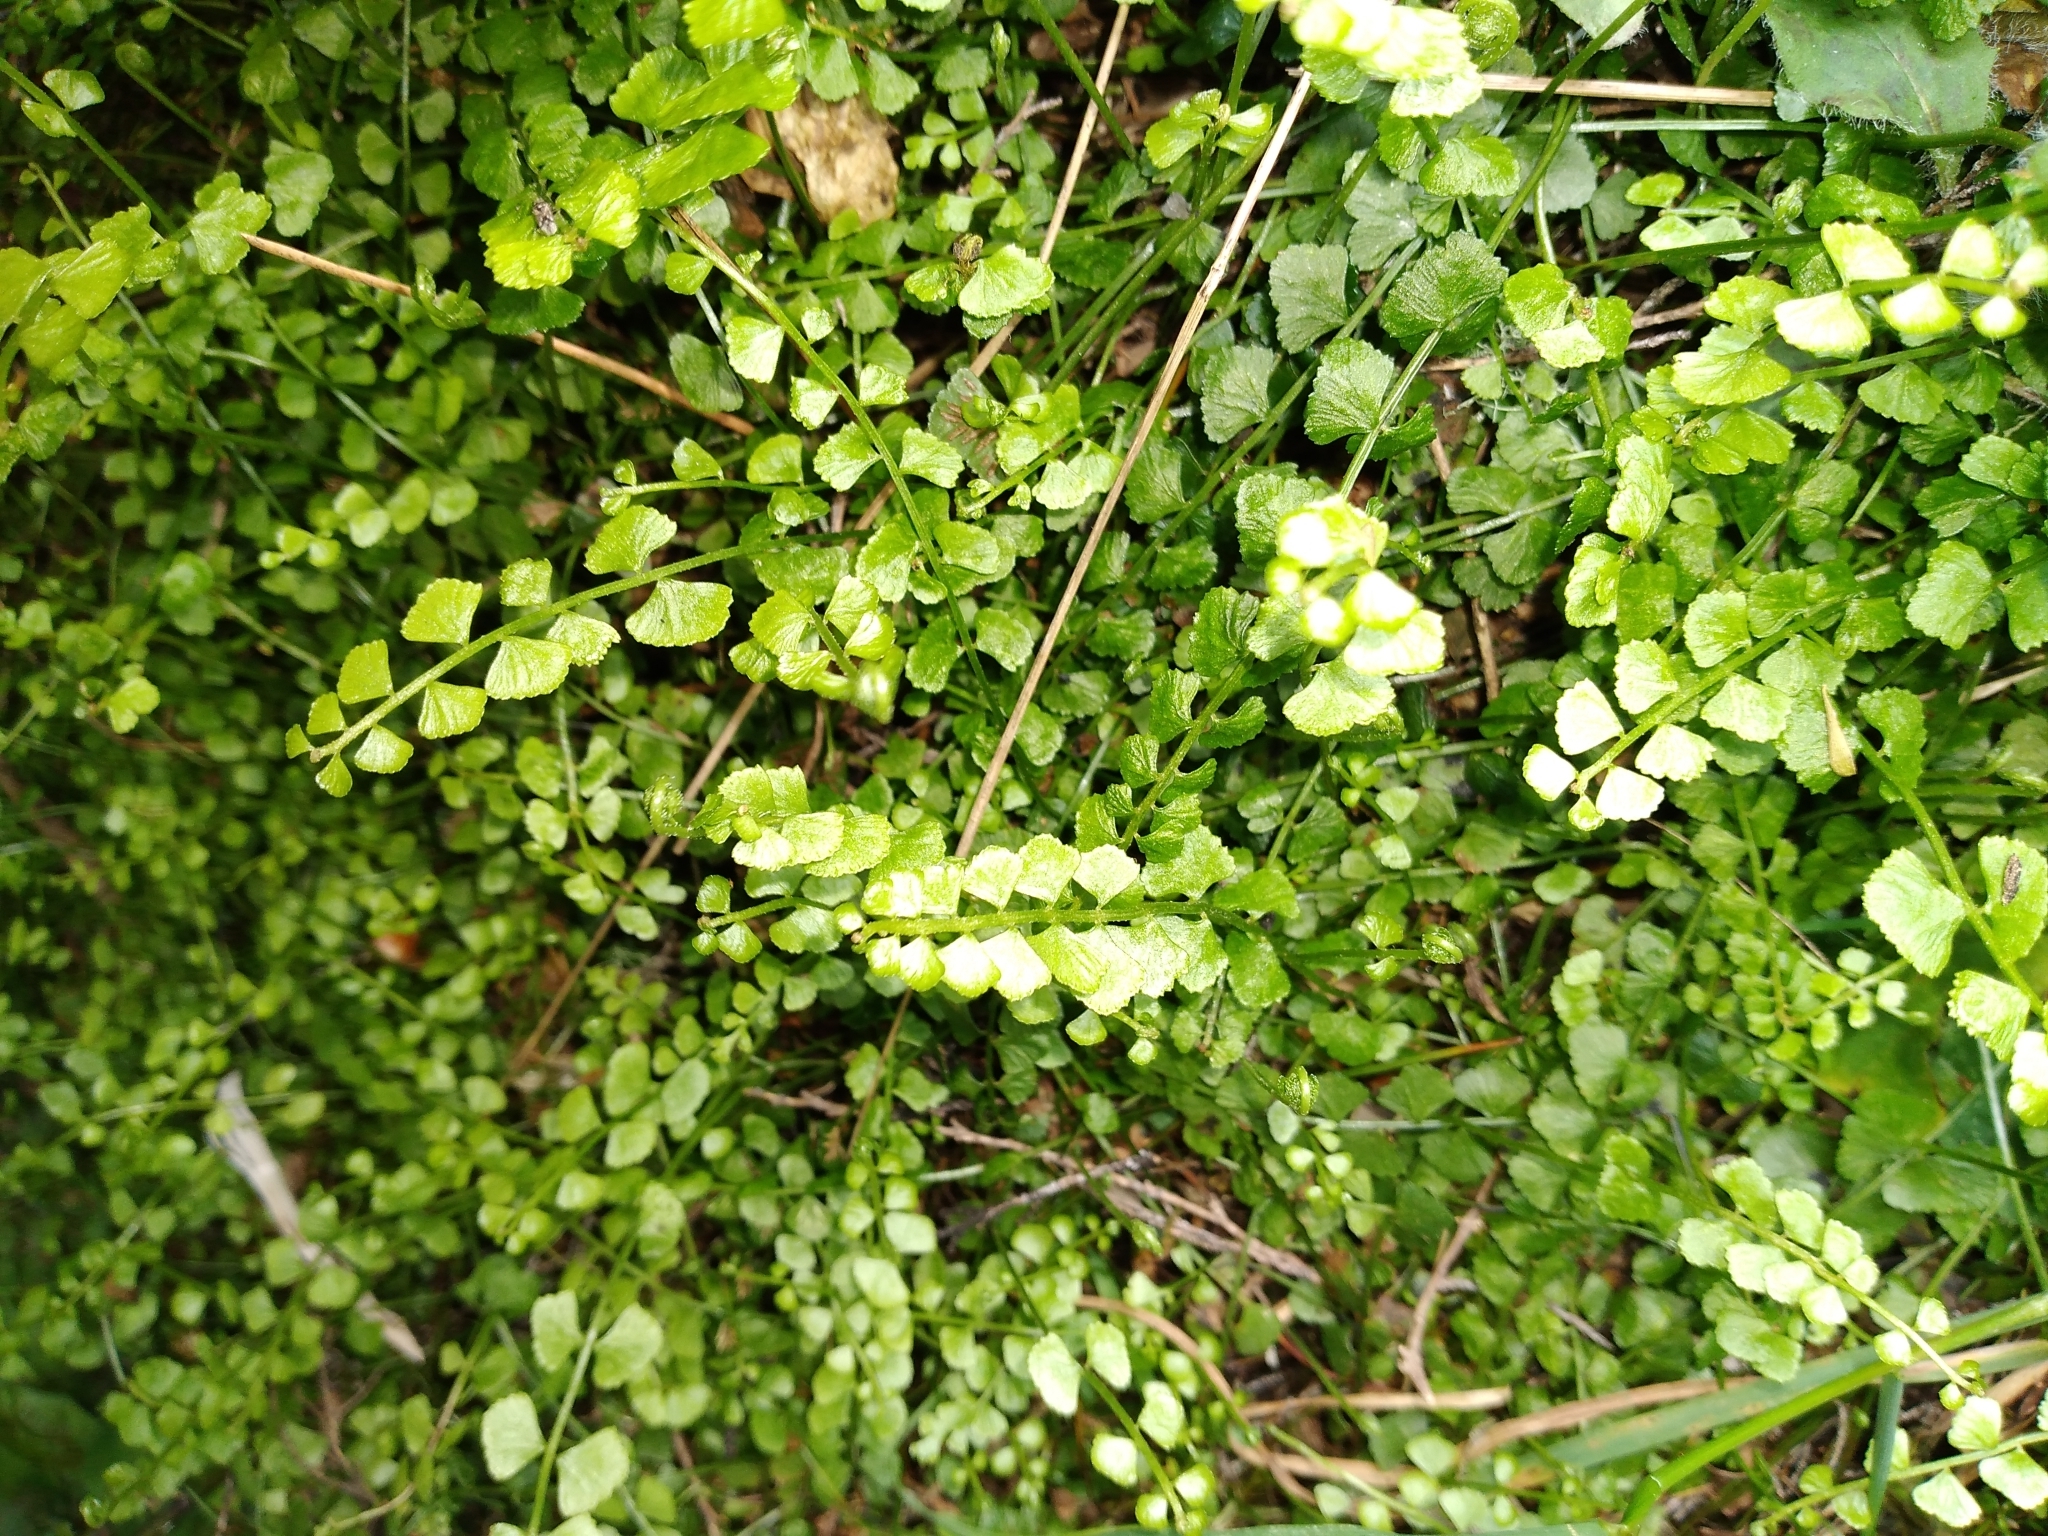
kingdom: Plantae
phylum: Tracheophyta
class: Polypodiopsida
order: Polypodiales
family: Aspleniaceae
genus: Asplenium
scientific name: Asplenium flabellifolium
